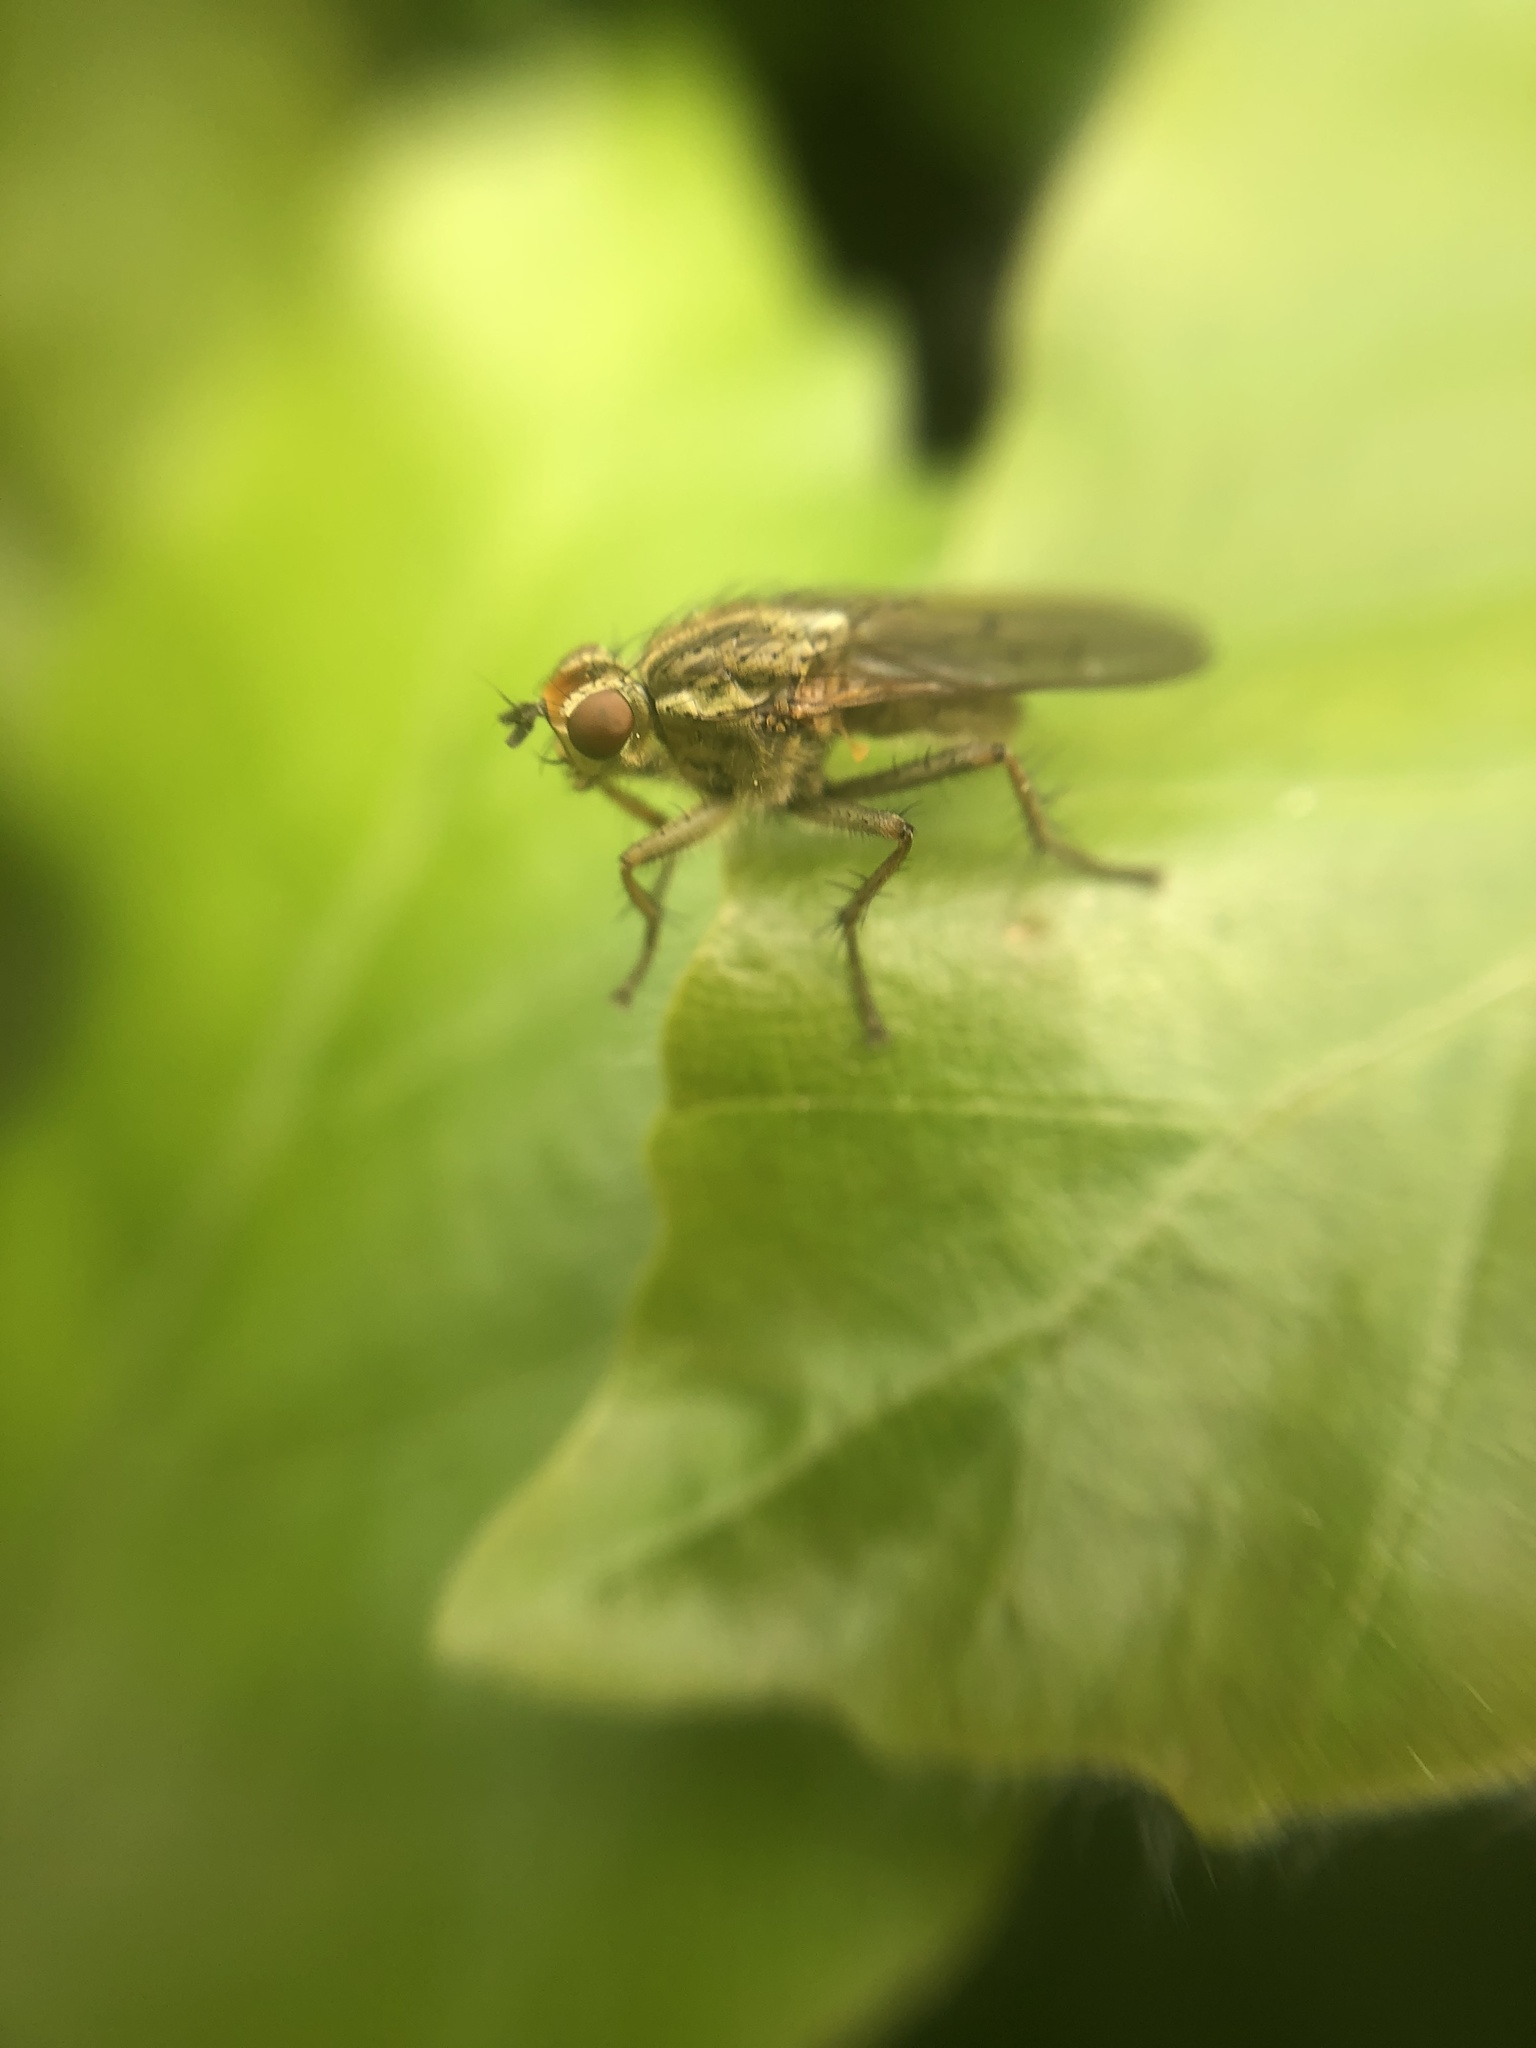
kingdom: Animalia
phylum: Arthropoda
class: Insecta
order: Diptera
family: Scathophagidae
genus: Scathophaga
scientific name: Scathophaga stercoraria
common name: Yellow dung fly
